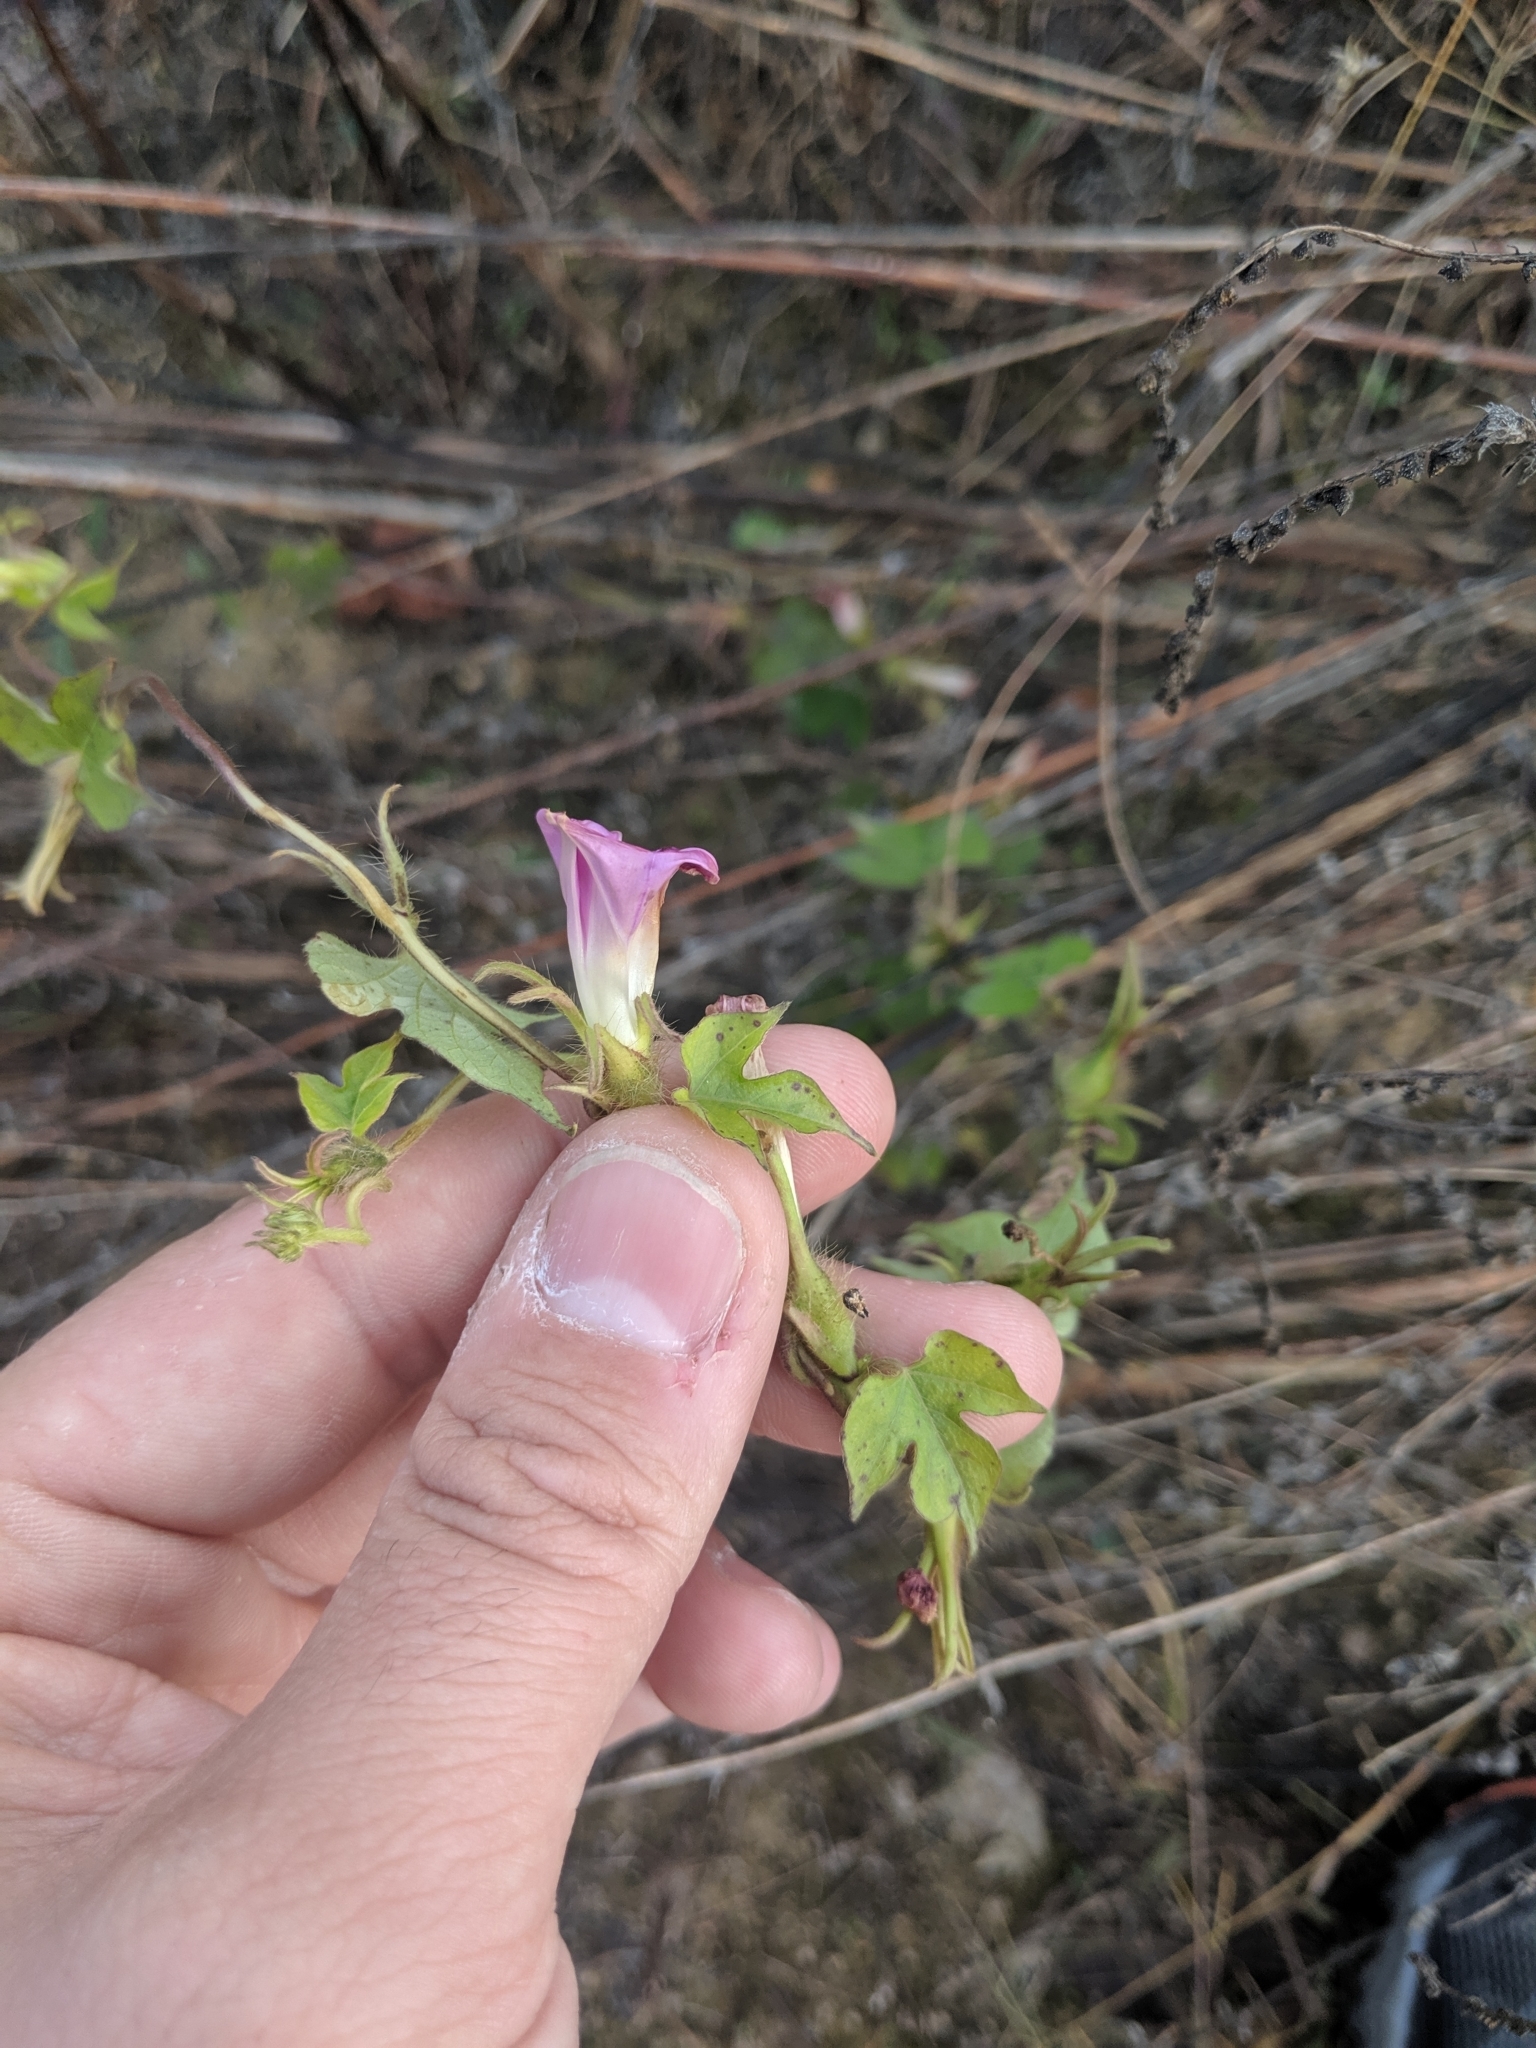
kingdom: Plantae
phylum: Tracheophyta
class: Magnoliopsida
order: Solanales
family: Convolvulaceae
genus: Ipomoea
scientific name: Ipomoea hederacea
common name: Ivy-leaved morning-glory
